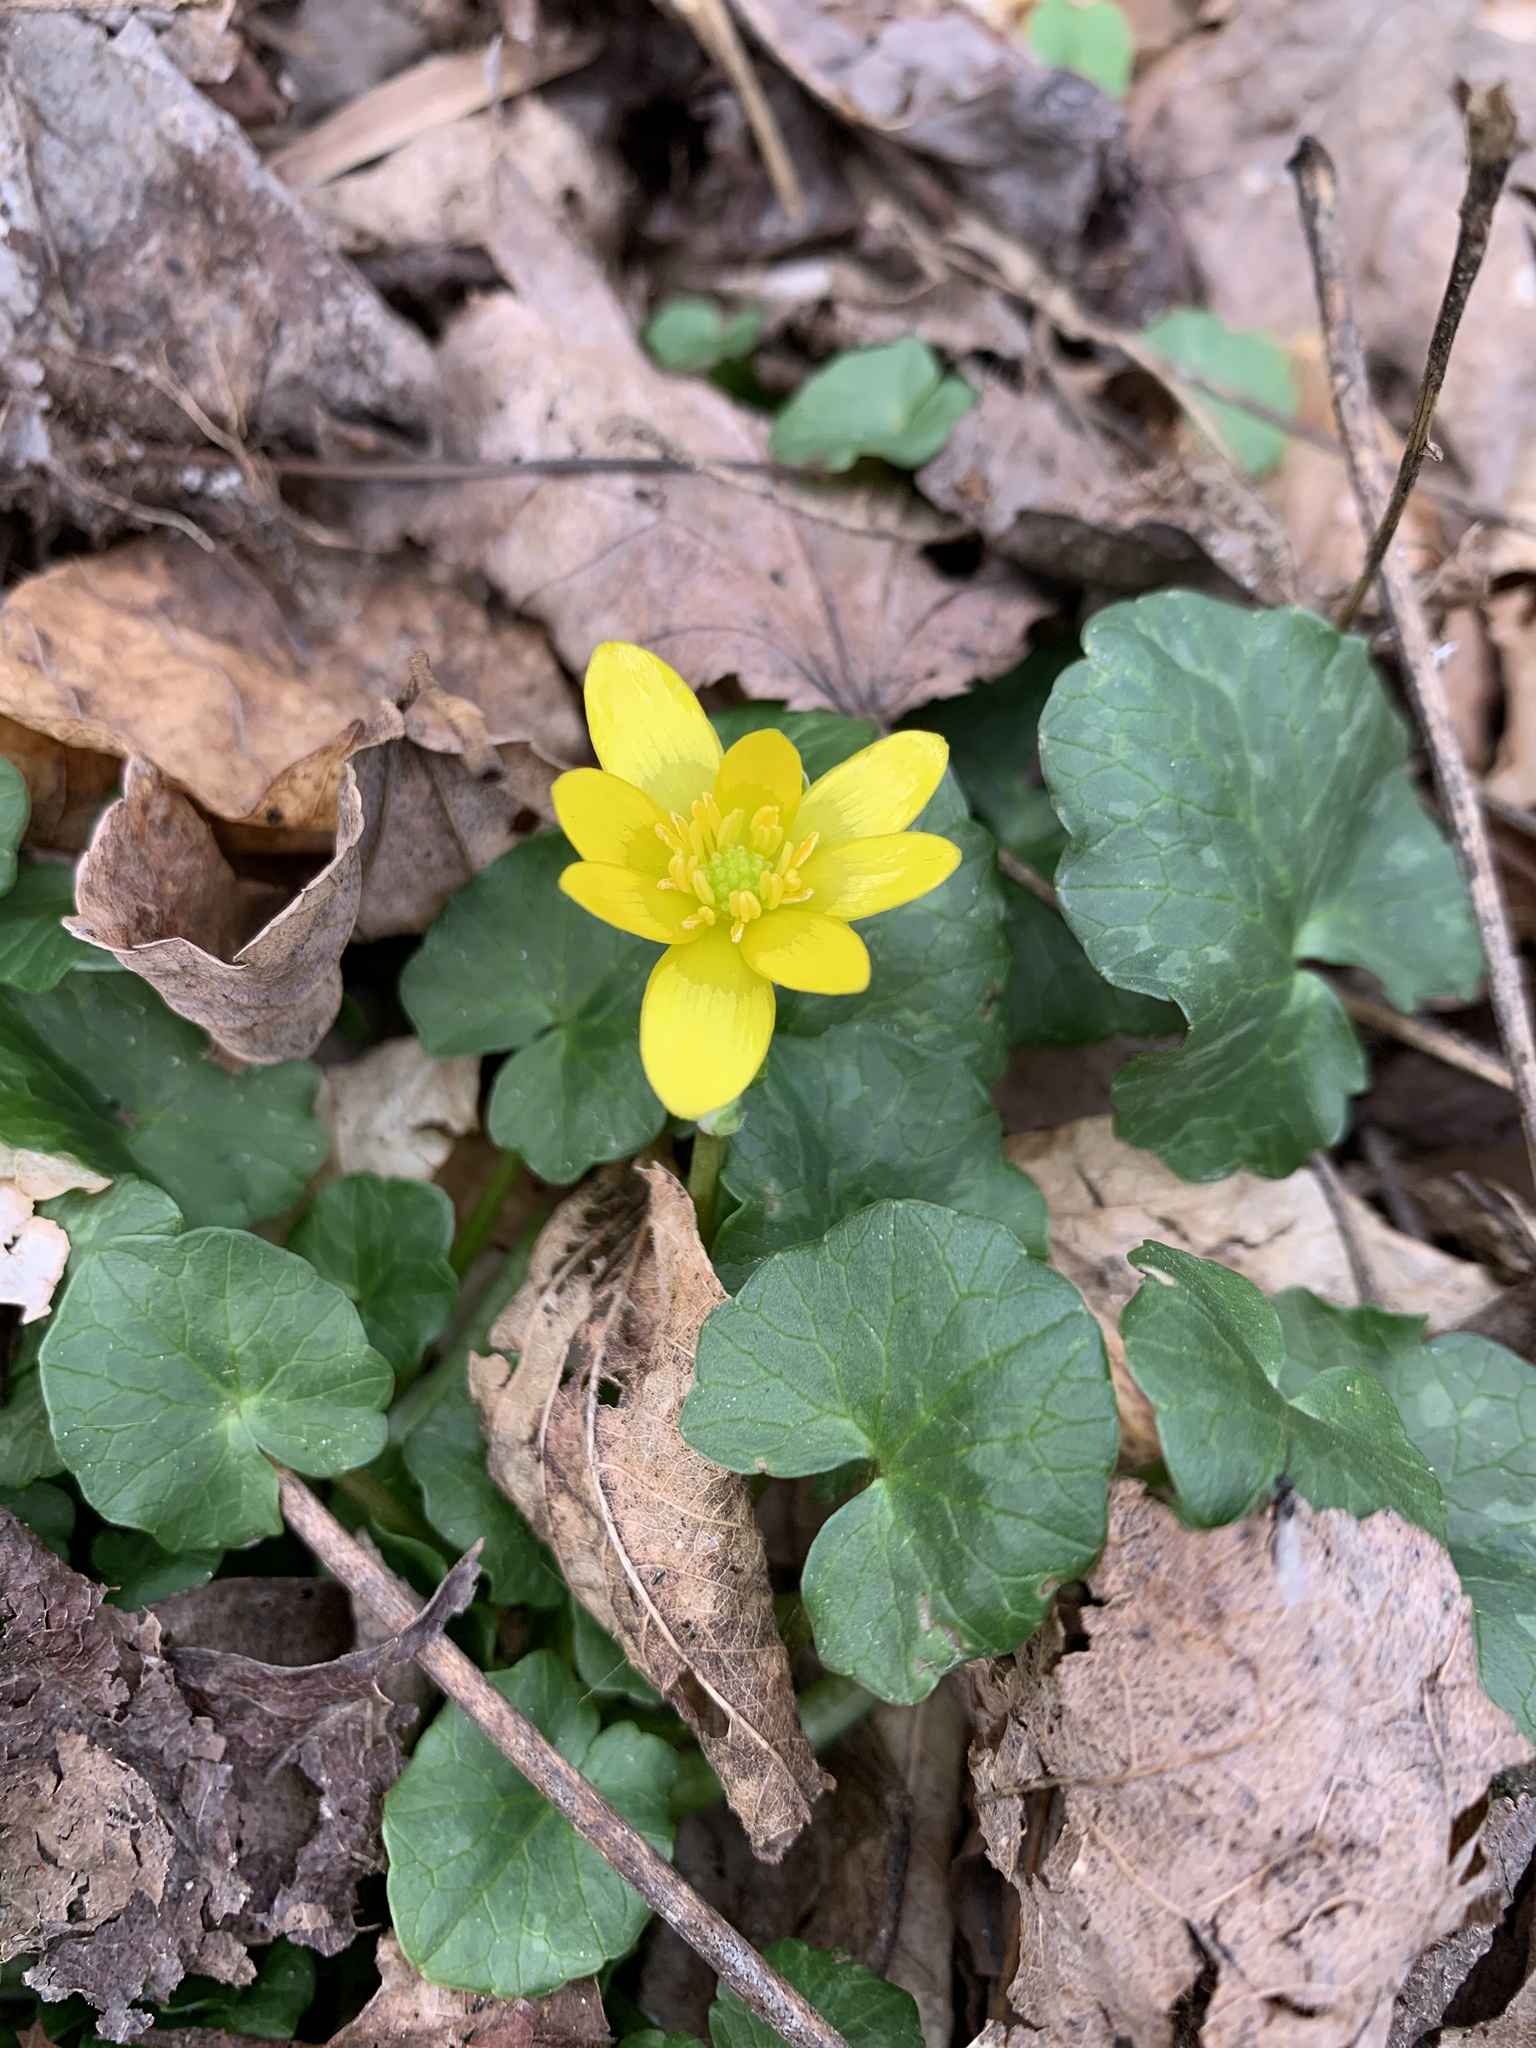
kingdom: Plantae
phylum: Tracheophyta
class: Magnoliopsida
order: Ranunculales
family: Ranunculaceae
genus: Ficaria
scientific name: Ficaria verna
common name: Lesser celandine
